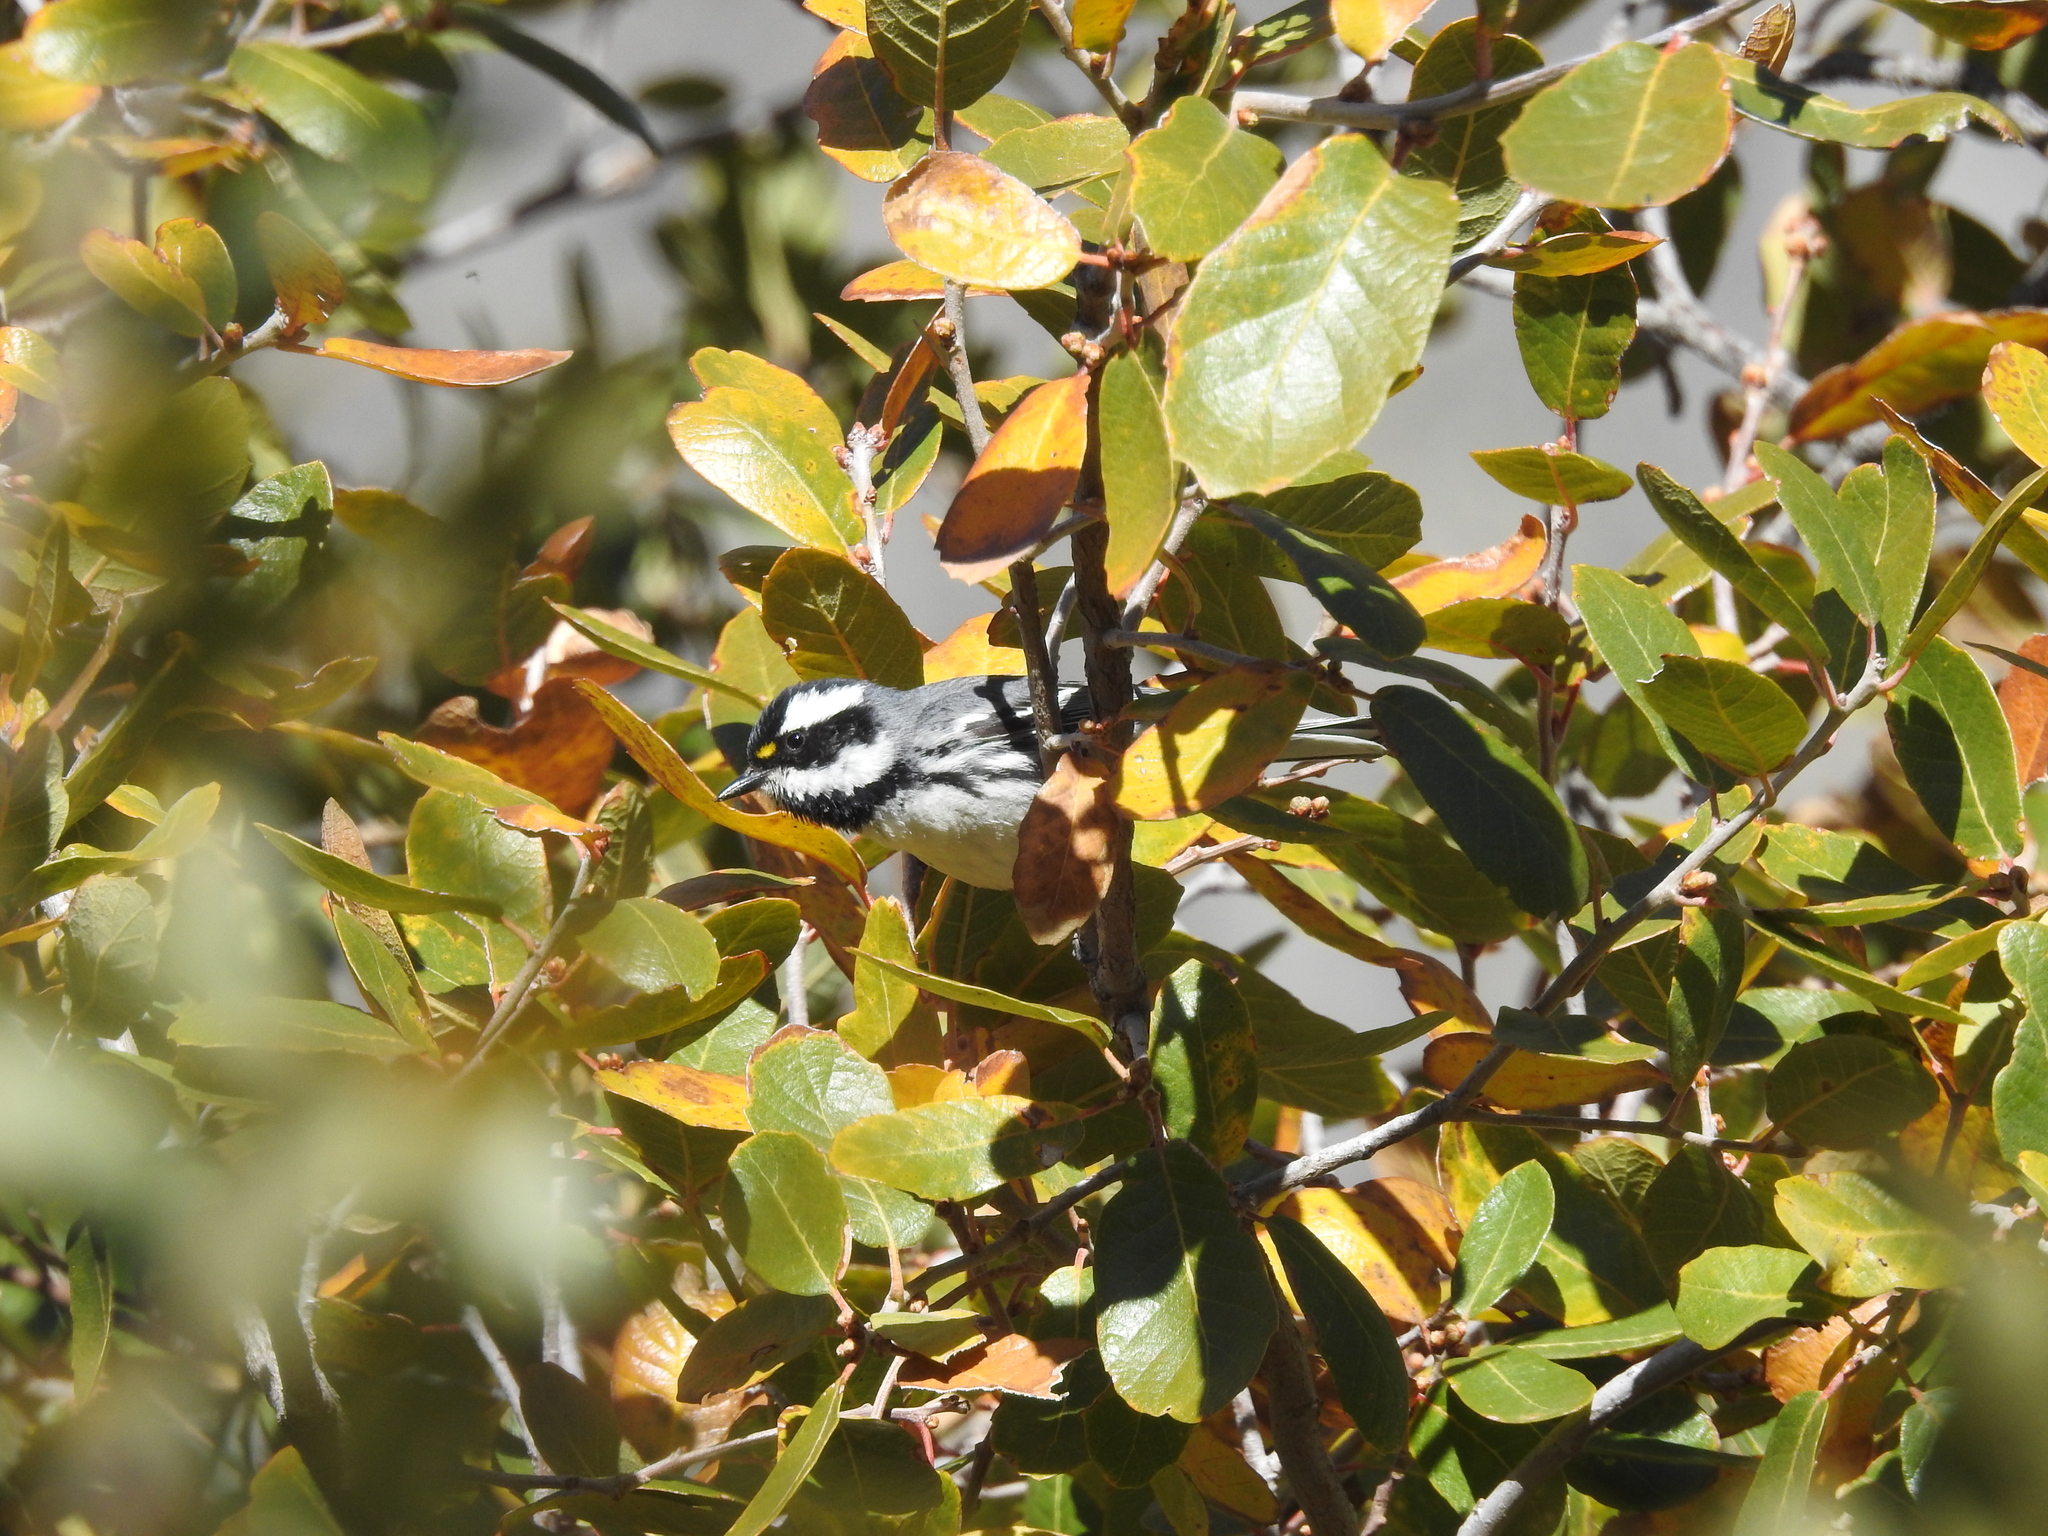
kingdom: Animalia
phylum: Chordata
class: Aves
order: Passeriformes
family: Parulidae
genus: Setophaga
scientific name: Setophaga nigrescens
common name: Black-throated gray warbler
